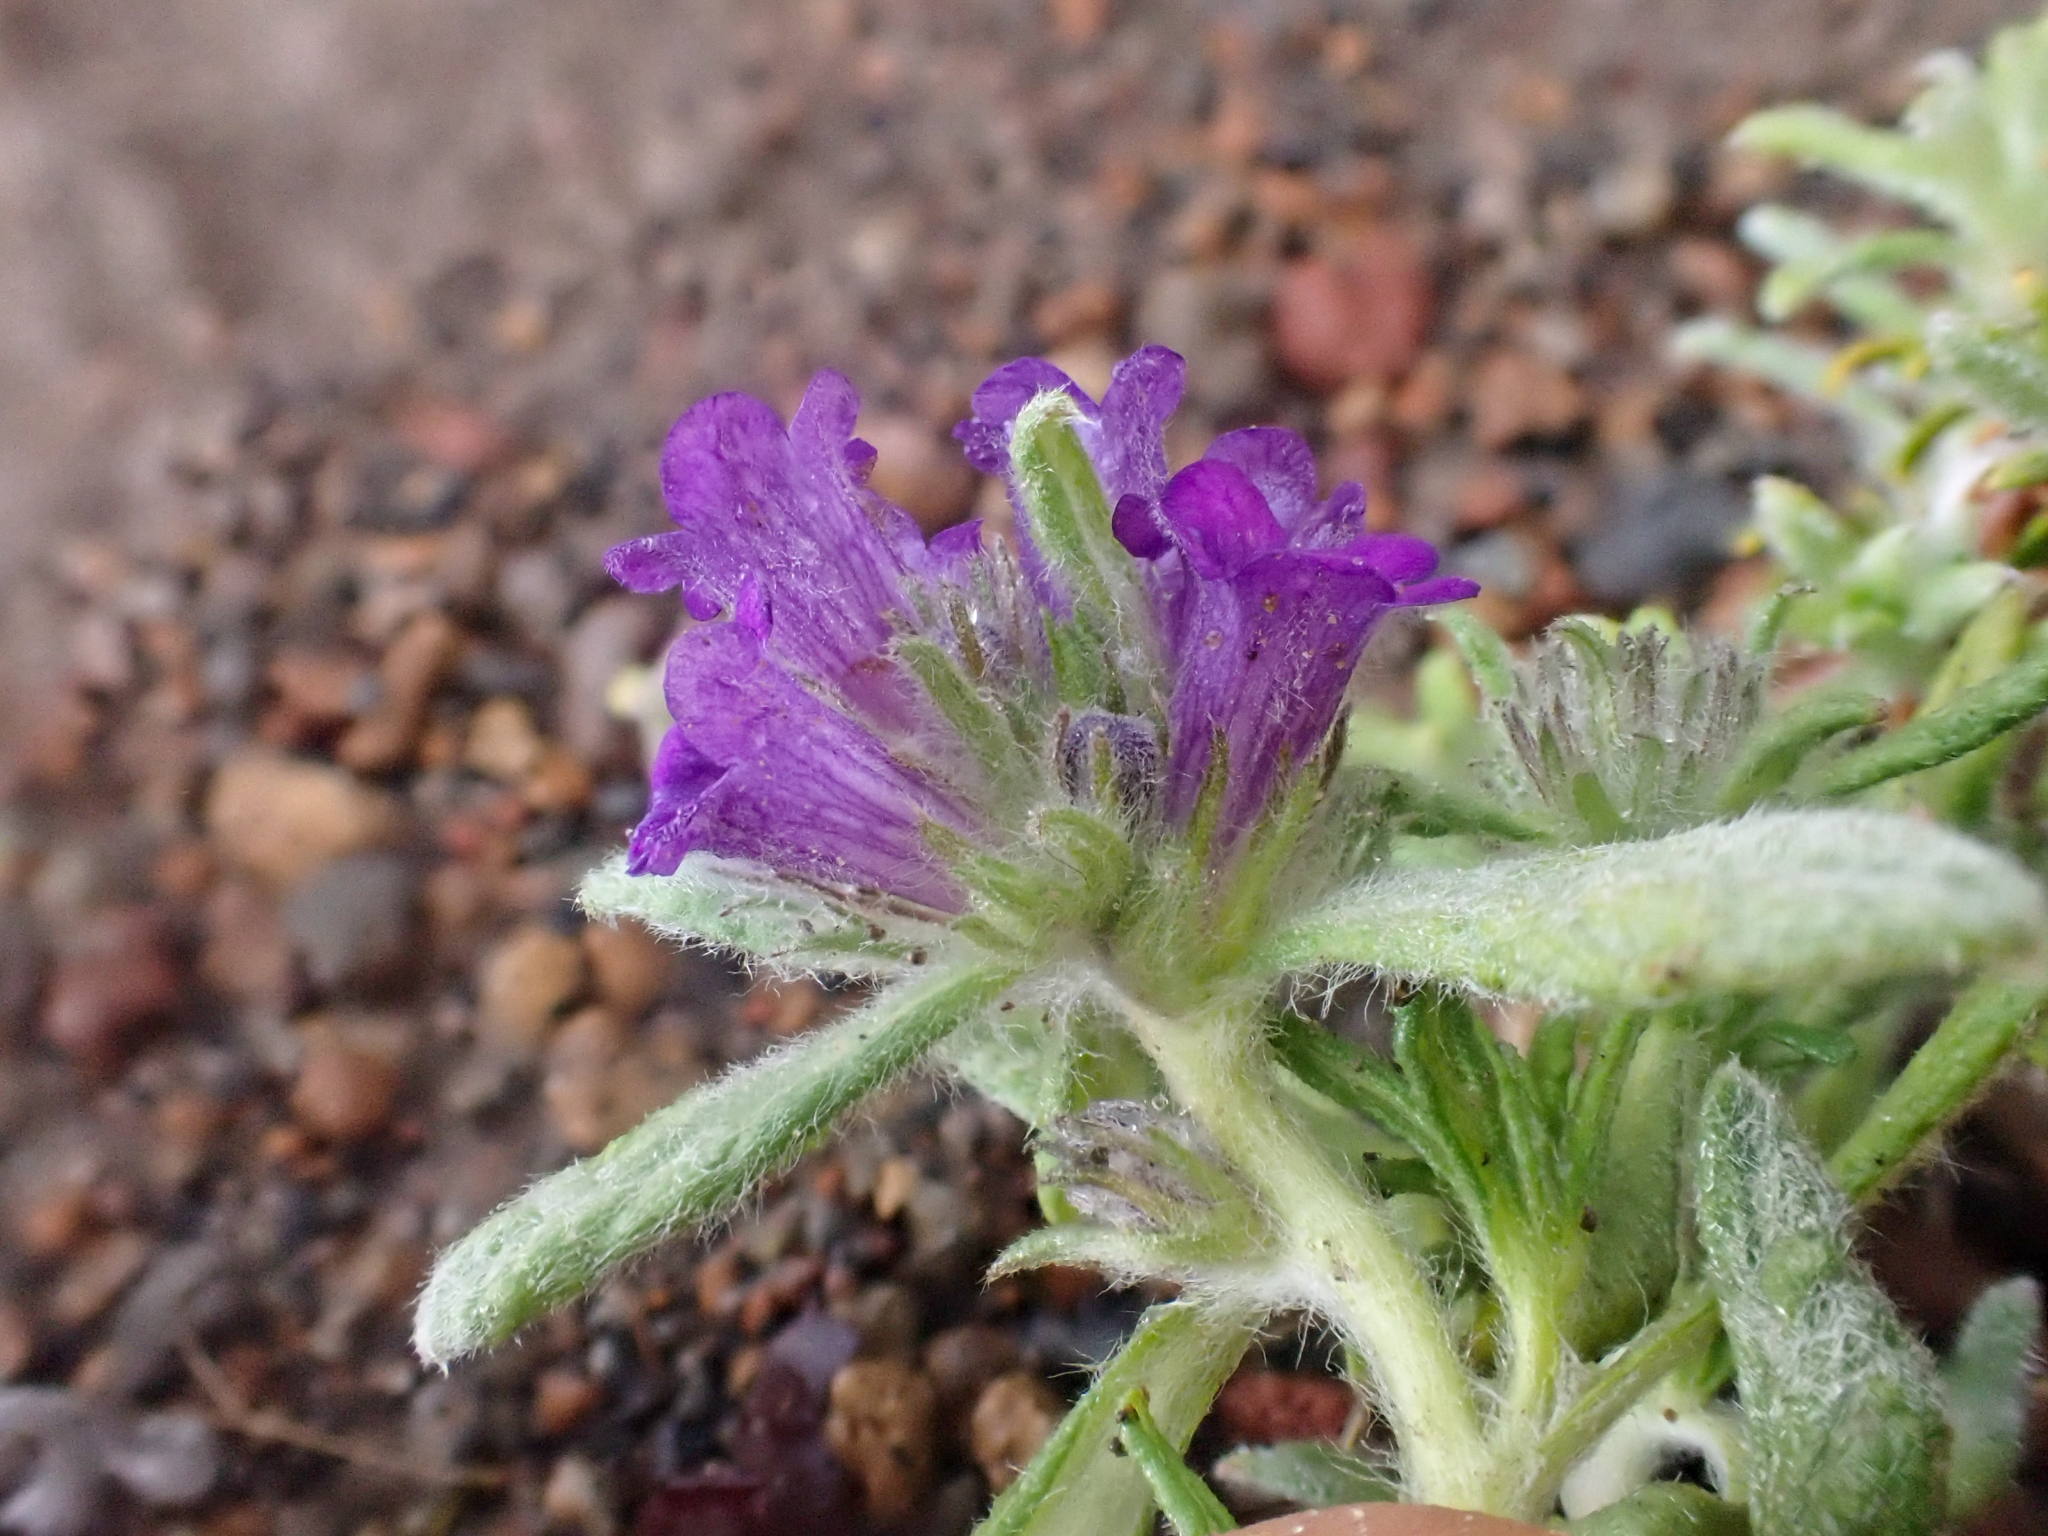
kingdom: Plantae
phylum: Tracheophyta
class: Magnoliopsida
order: Boraginales
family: Namaceae
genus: Nama
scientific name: Nama lobbii
